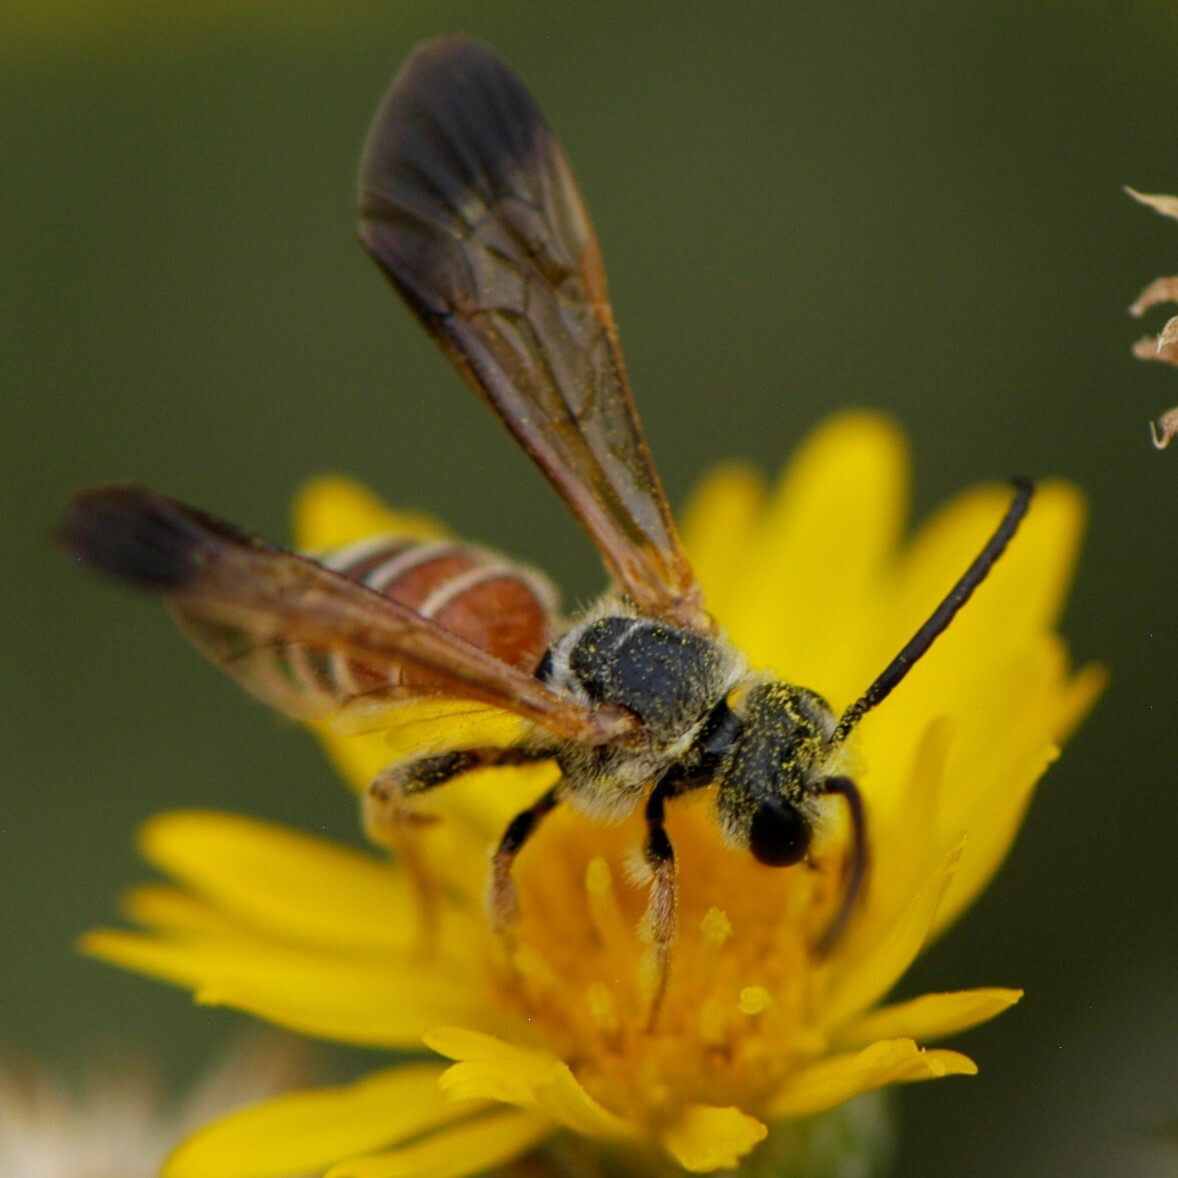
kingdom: Animalia
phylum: Arthropoda
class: Insecta
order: Hymenoptera
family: Halictidae
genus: Dieunomia
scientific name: Dieunomia nevadensis
